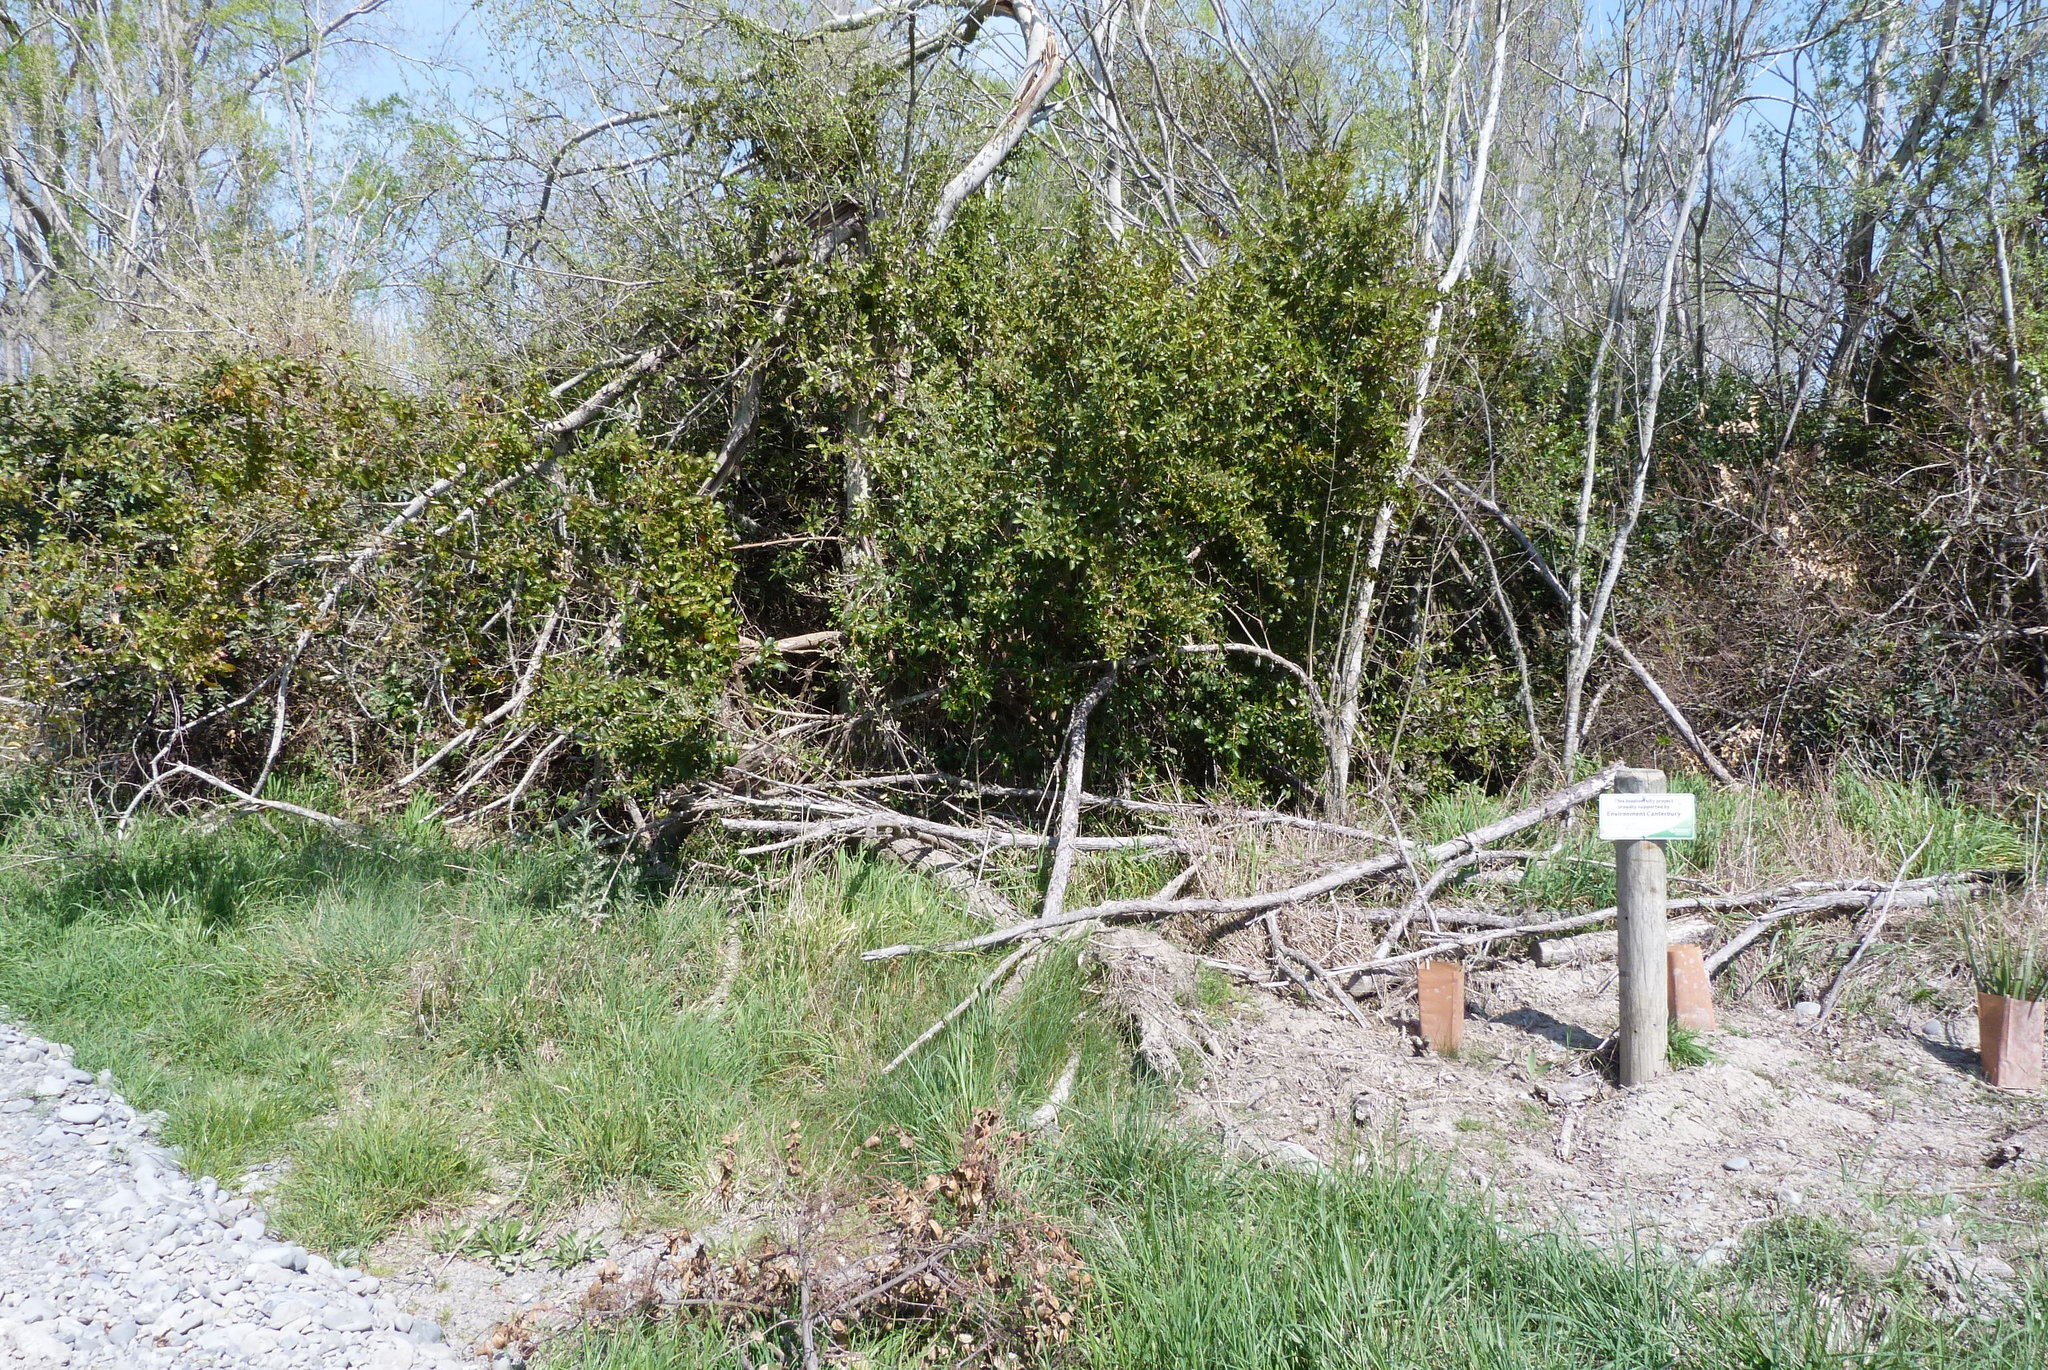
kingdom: Plantae
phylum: Tracheophyta
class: Magnoliopsida
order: Gentianales
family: Rubiaceae
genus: Coprosma
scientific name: Coprosma robusta
